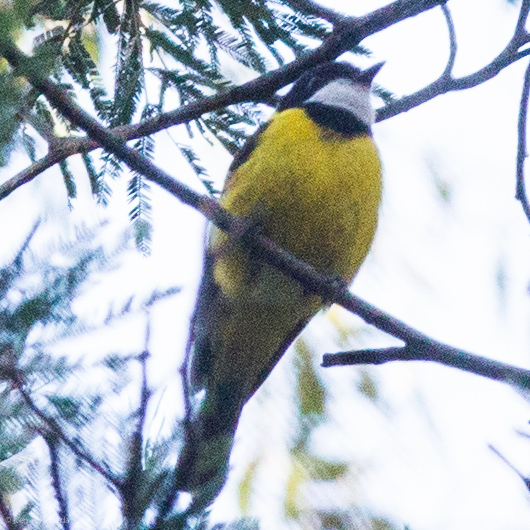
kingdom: Animalia
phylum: Chordata
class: Aves
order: Passeriformes
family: Pachycephalidae
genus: Pachycephala
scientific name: Pachycephala pectoralis
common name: Australian golden whistler
